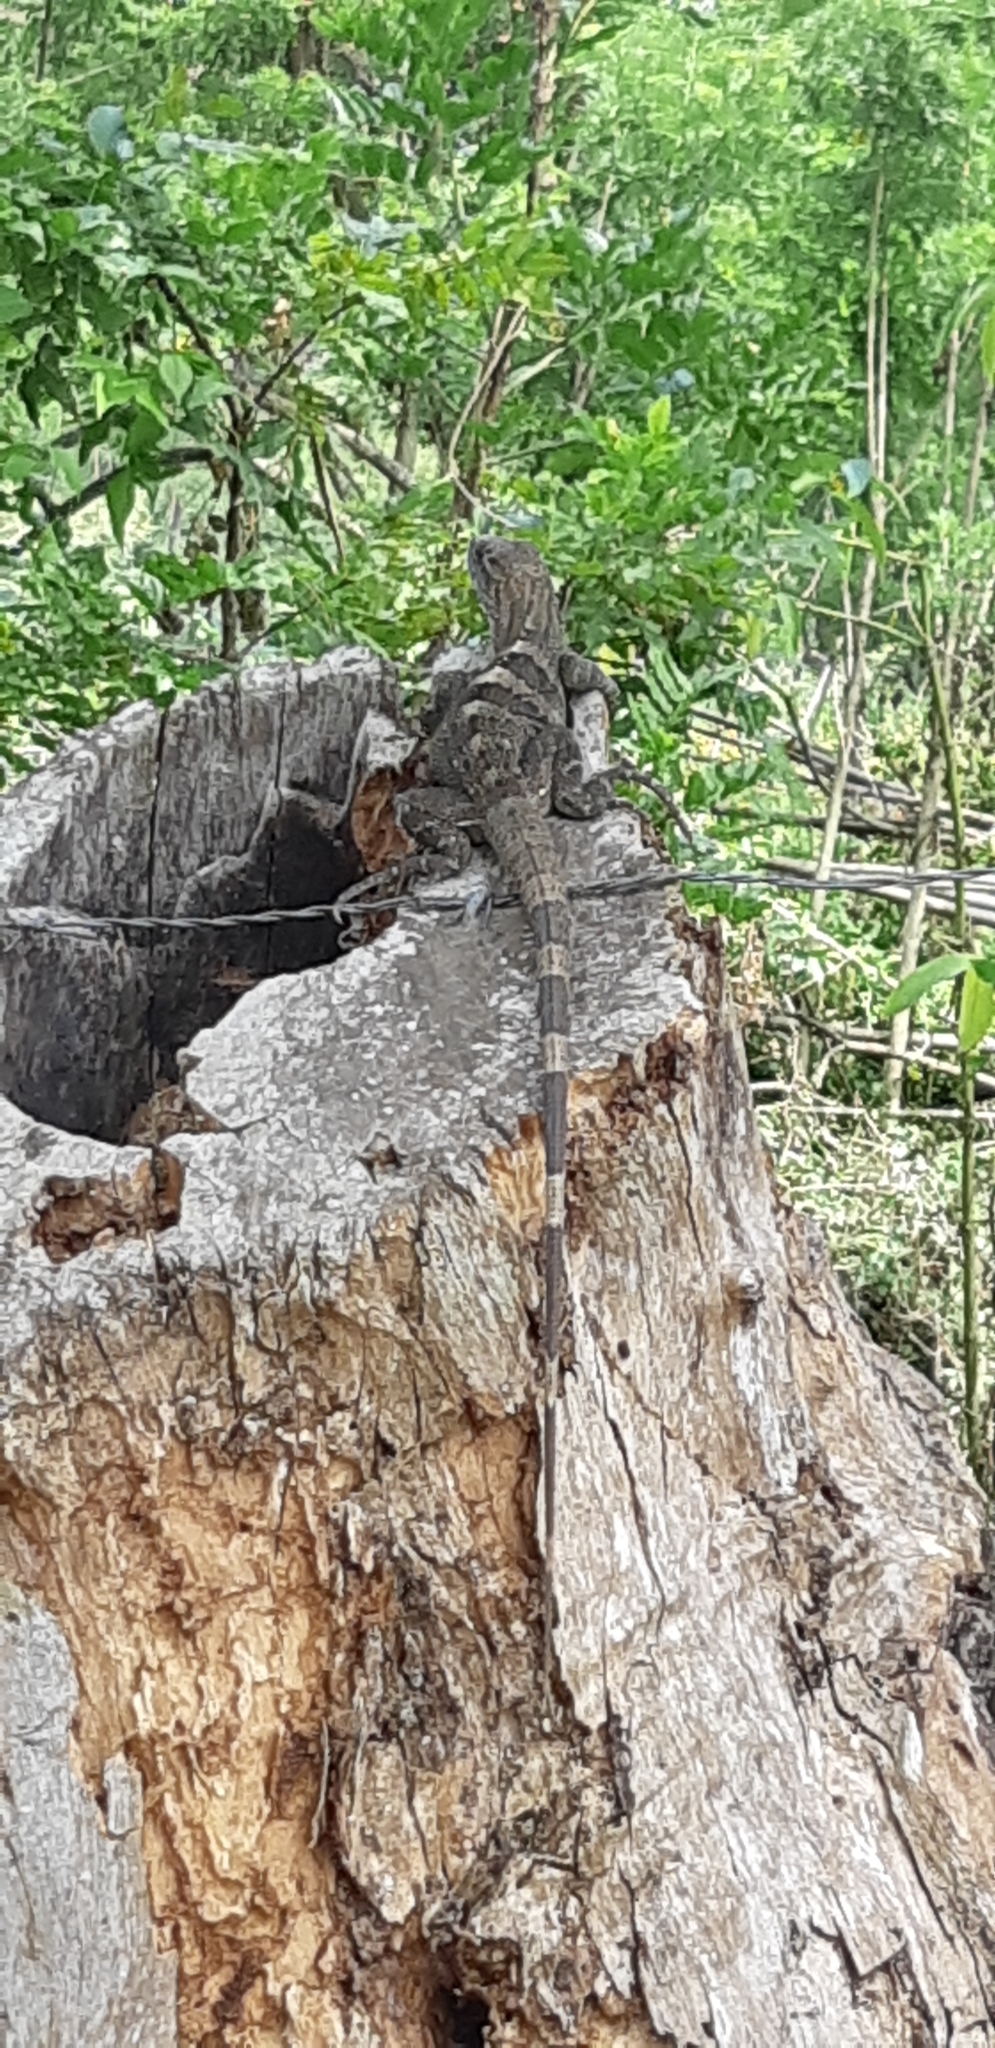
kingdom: Animalia
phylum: Chordata
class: Squamata
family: Iguanidae
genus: Ctenosaura
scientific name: Ctenosaura similis
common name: Black spiny-tailed iguana
